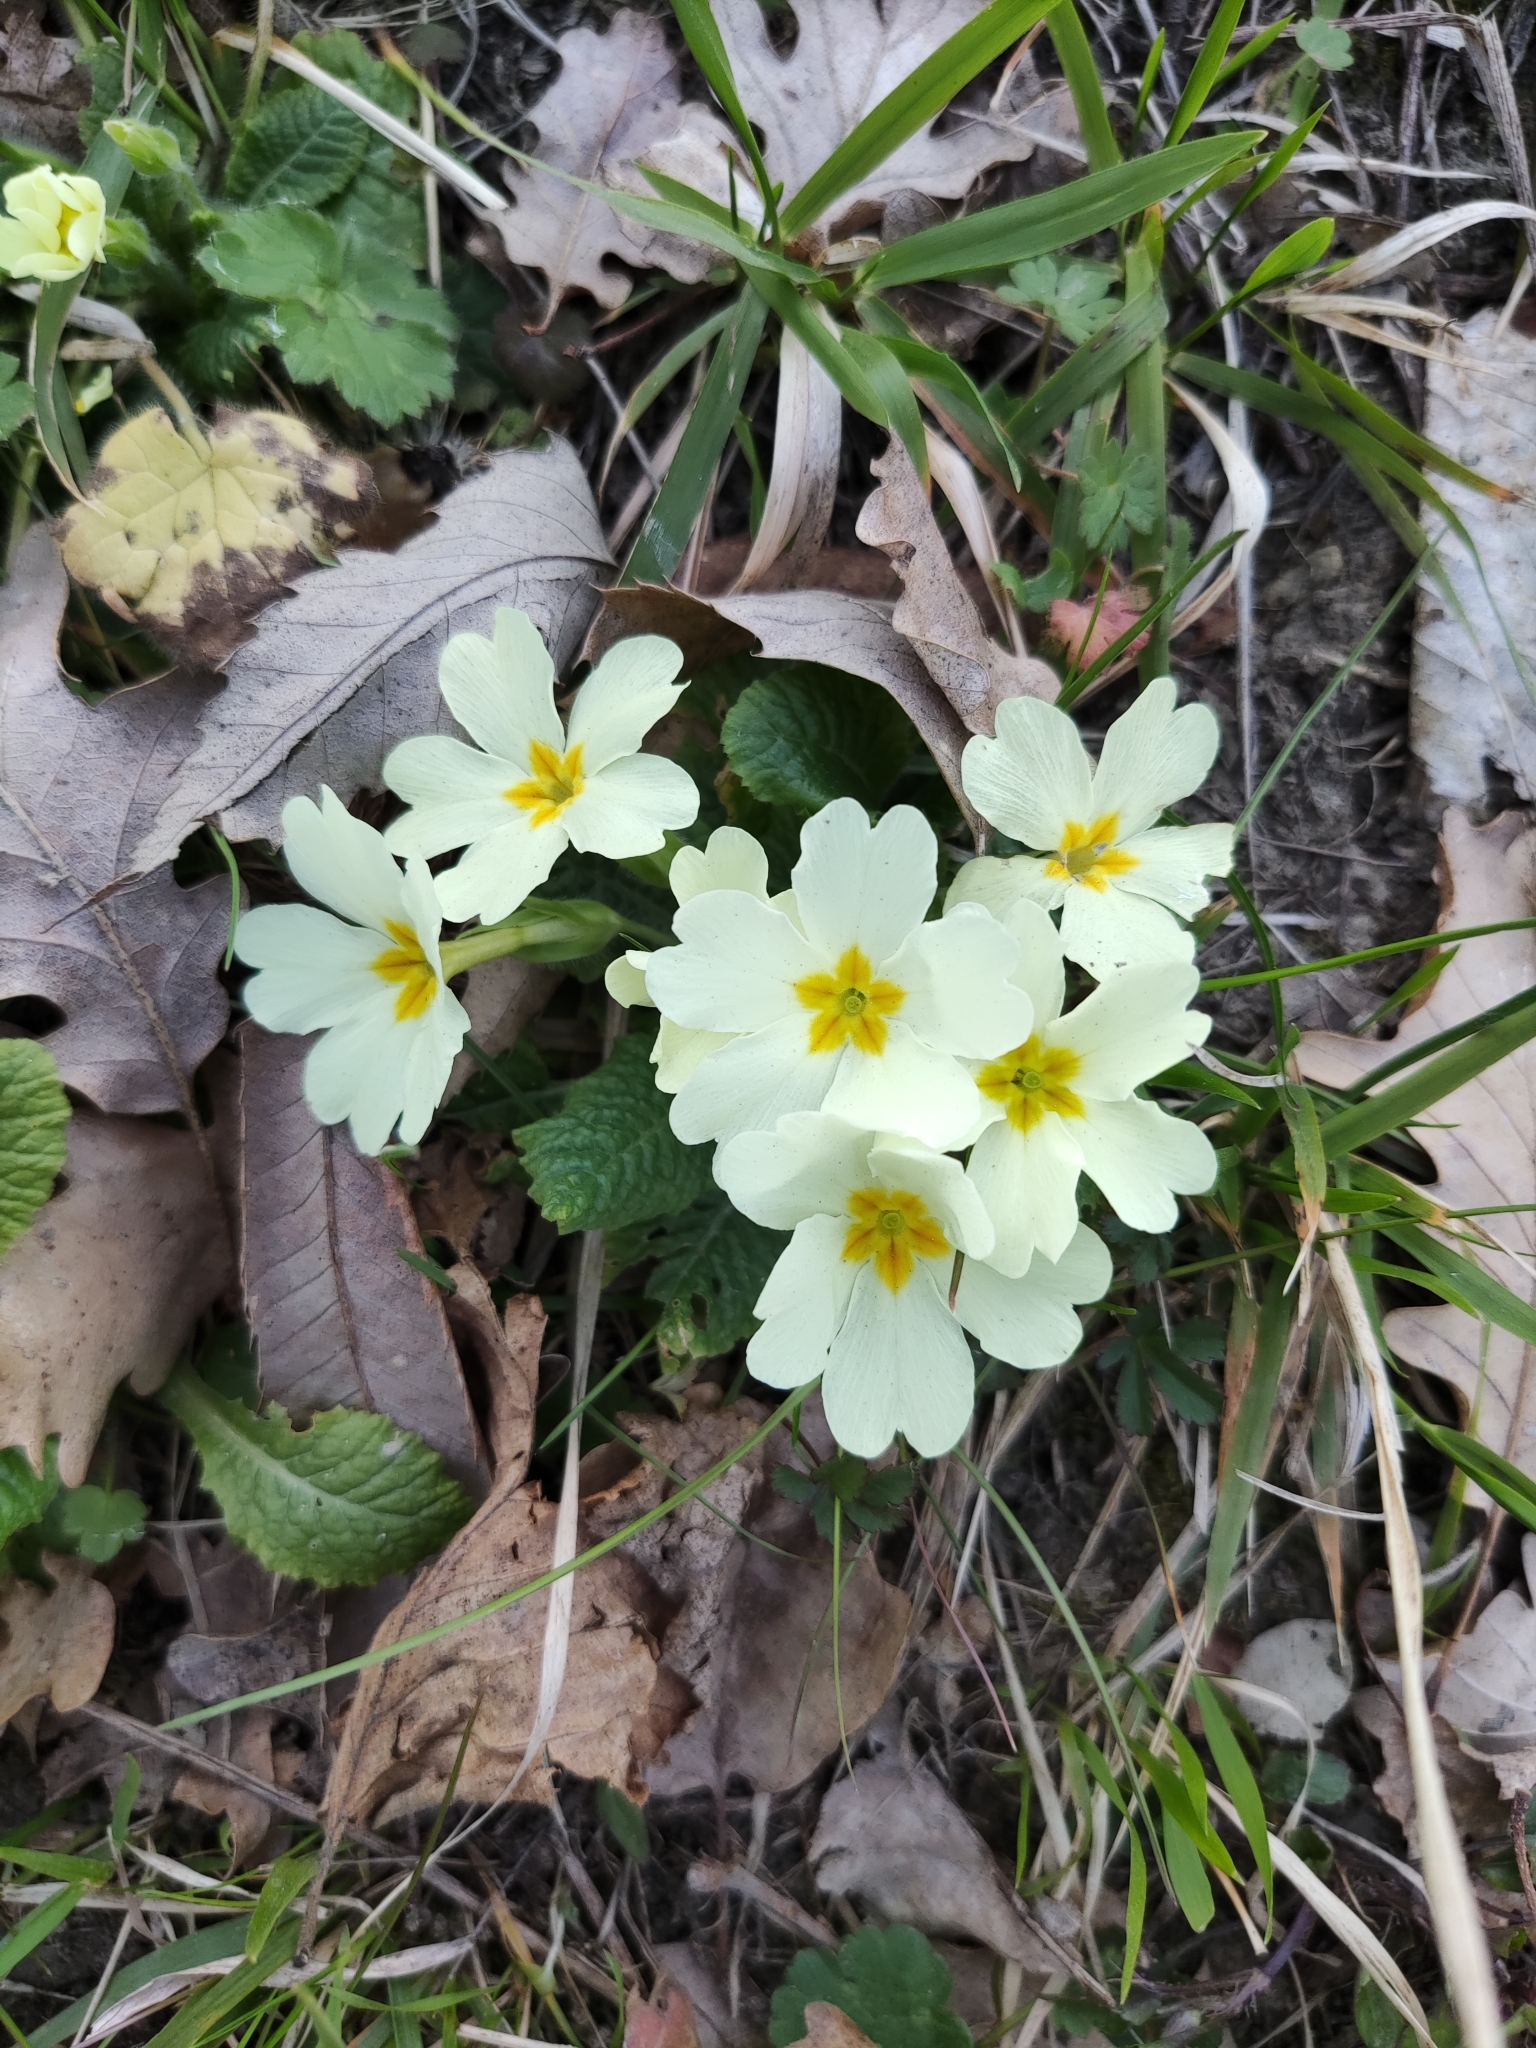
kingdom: Plantae
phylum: Tracheophyta
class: Magnoliopsida
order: Ericales
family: Primulaceae
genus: Primula
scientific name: Primula vulgaris
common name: Primrose
